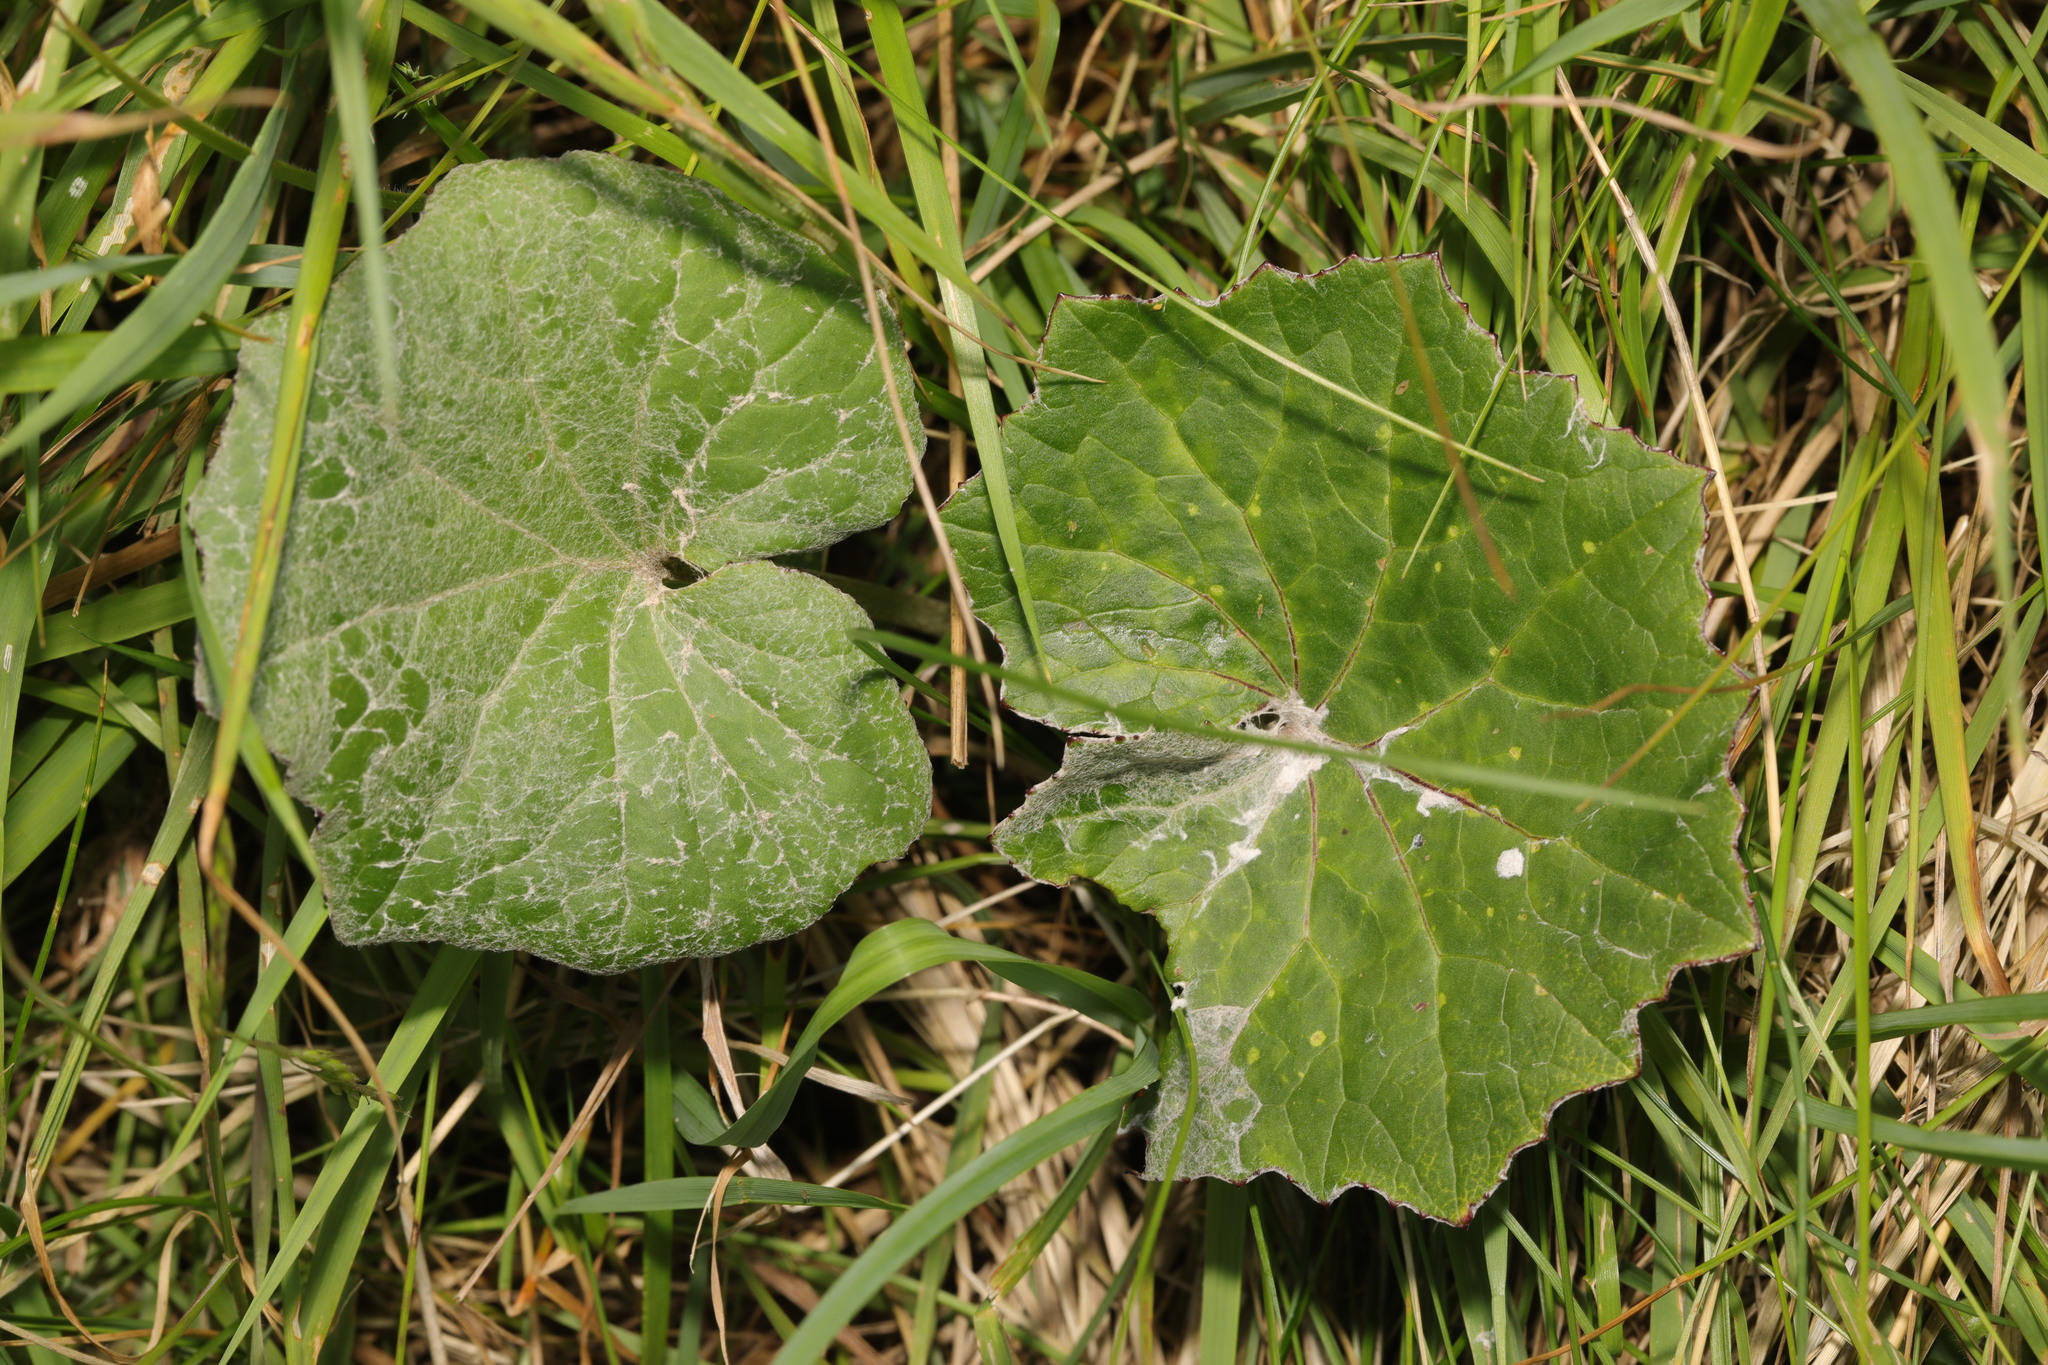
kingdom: Plantae
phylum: Tracheophyta
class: Magnoliopsida
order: Asterales
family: Asteraceae
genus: Tussilago
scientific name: Tussilago farfara
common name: Coltsfoot
